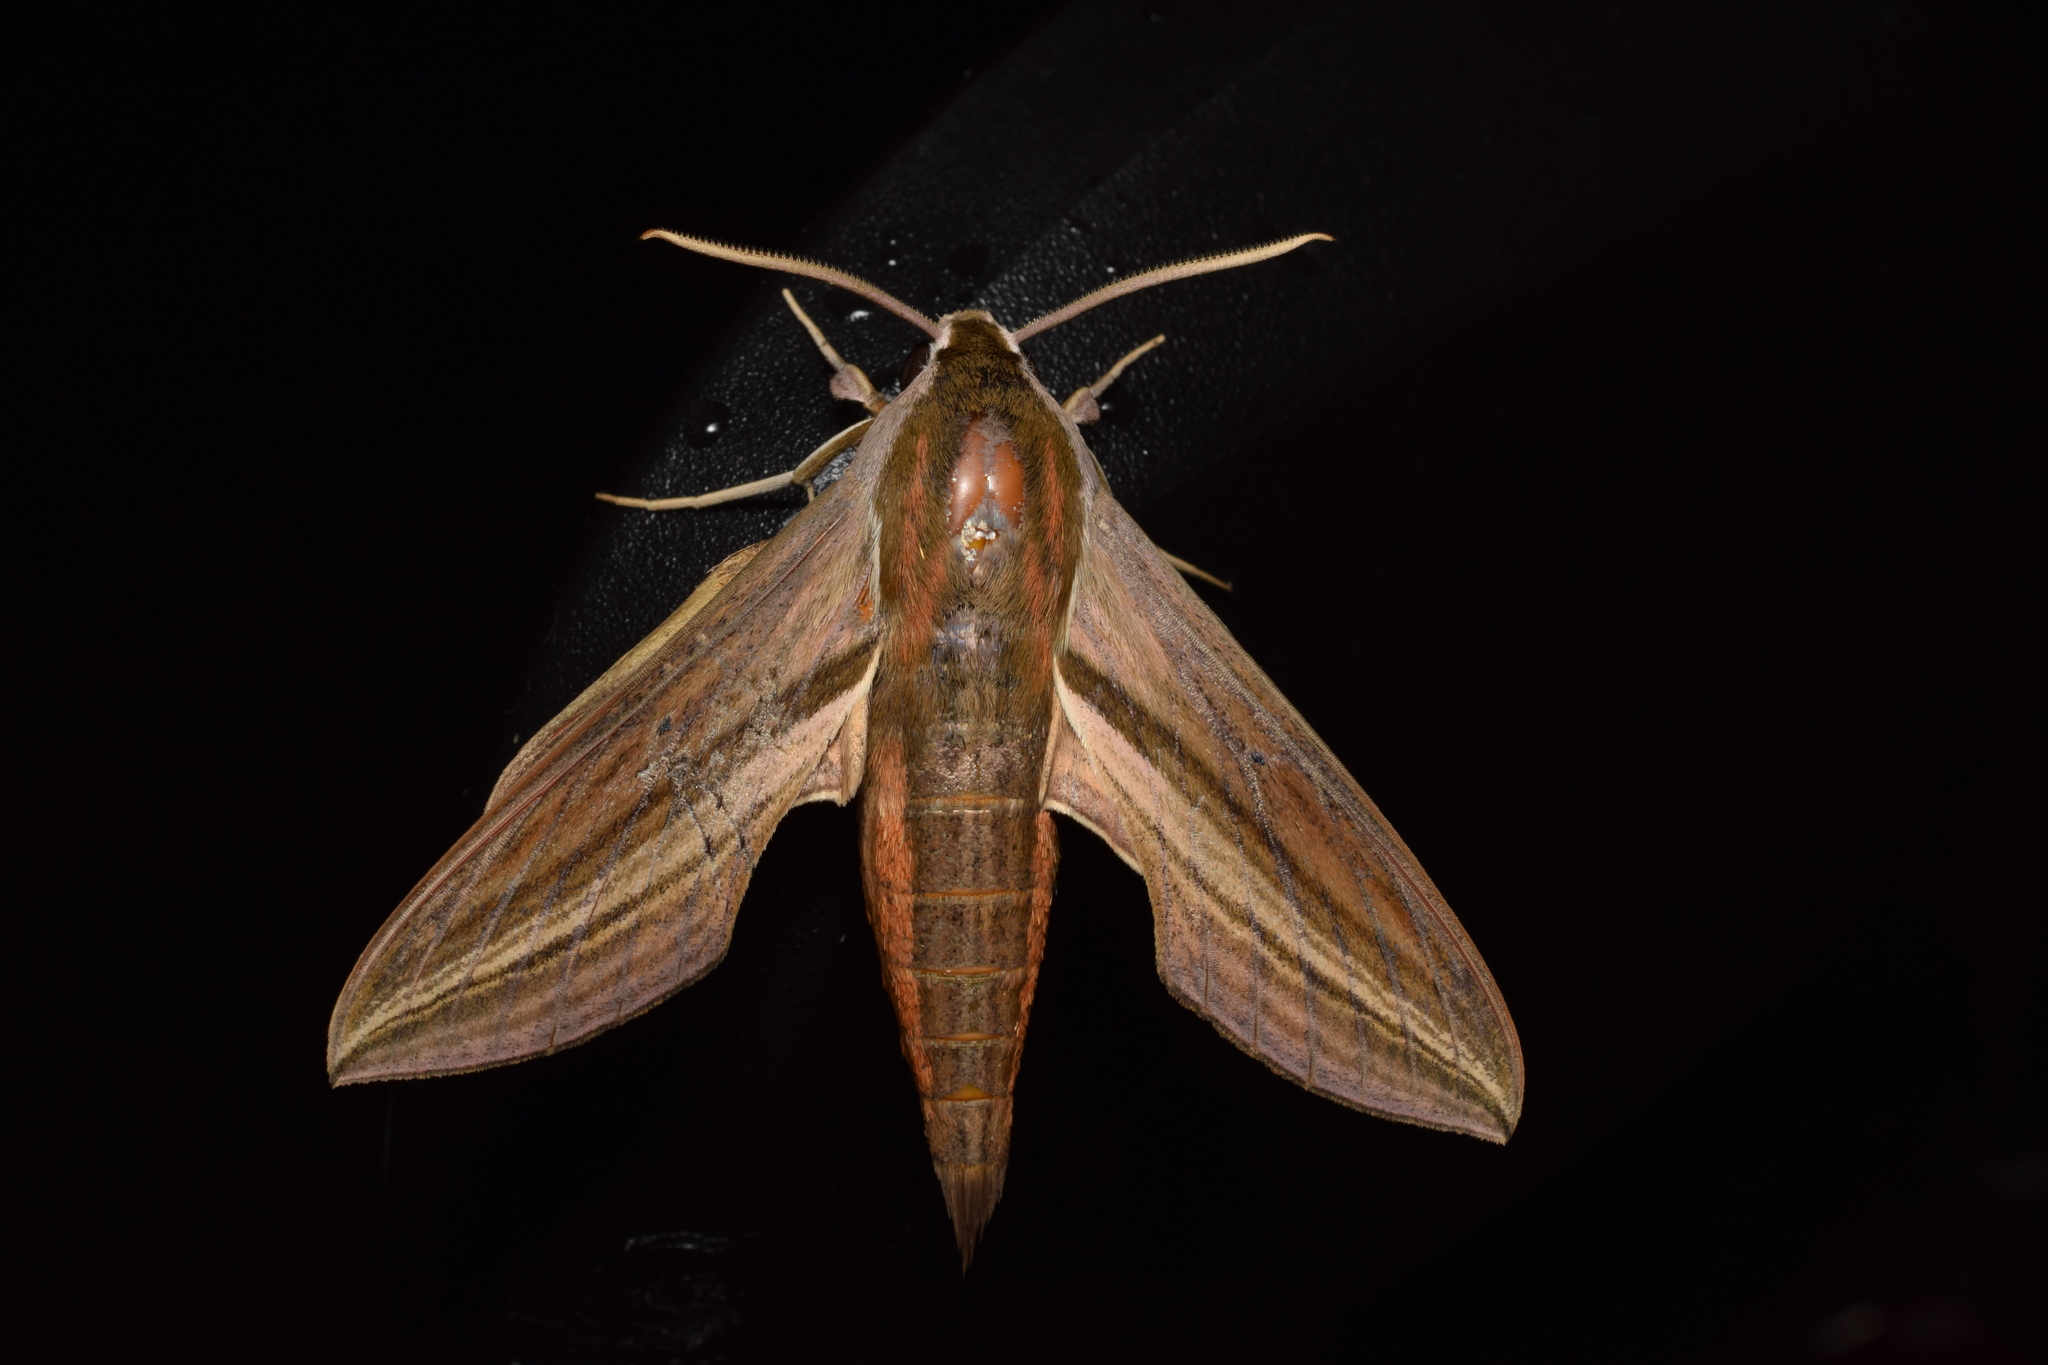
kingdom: Animalia
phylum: Arthropoda
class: Insecta
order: Lepidoptera
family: Sphingidae
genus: Theretra
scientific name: Theretra japonica
